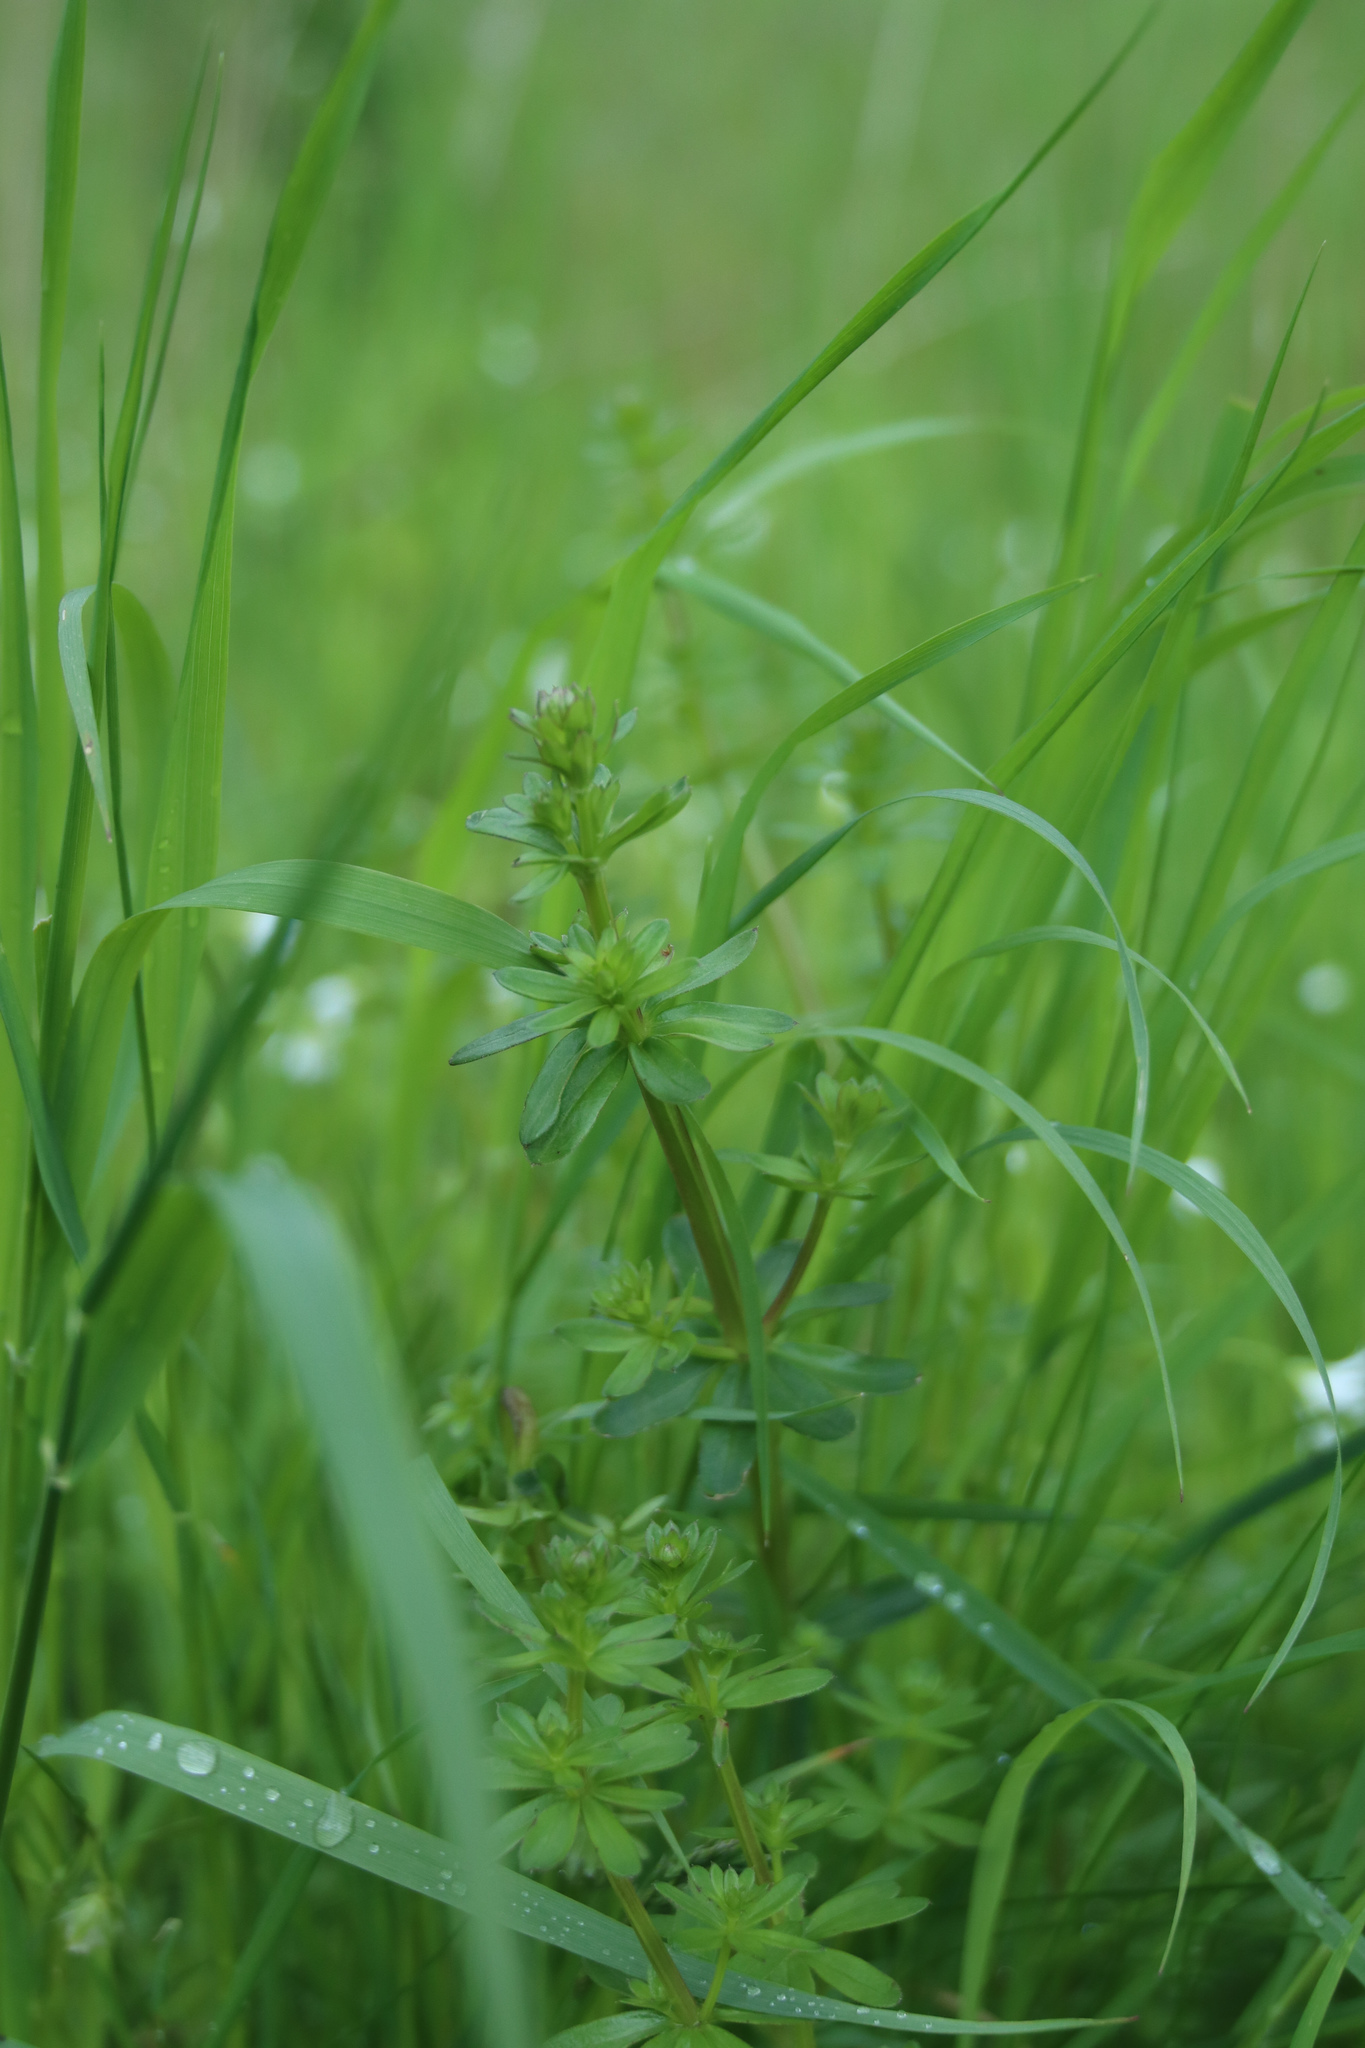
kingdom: Plantae
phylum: Tracheophyta
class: Magnoliopsida
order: Gentianales
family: Rubiaceae
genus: Galium
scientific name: Galium mollugo
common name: Hedge bedstraw
